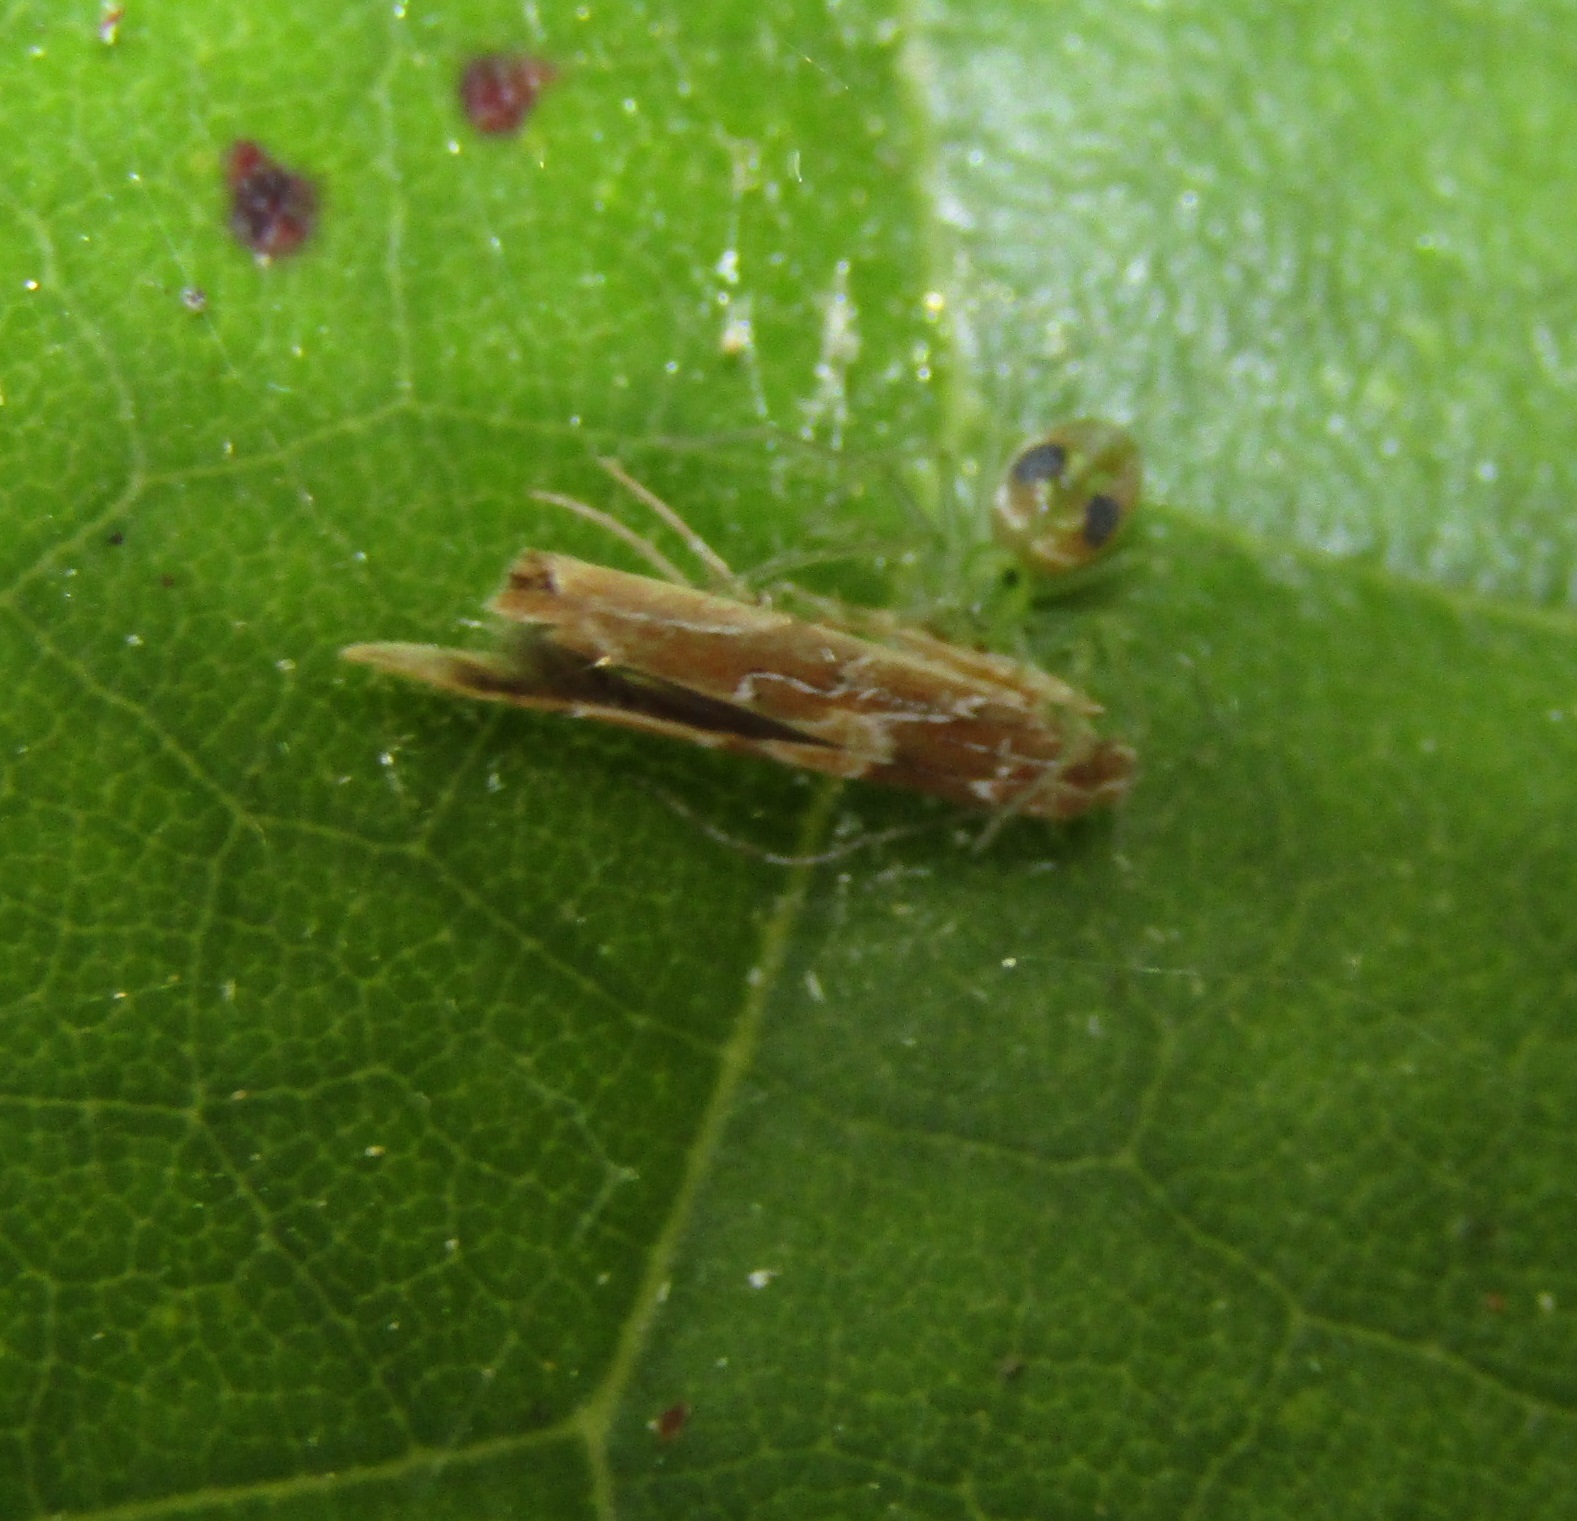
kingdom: Animalia
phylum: Arthropoda
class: Insecta
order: Lepidoptera
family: Cosmopterigidae
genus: Pyroderces
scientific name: Pyroderces apparitella
